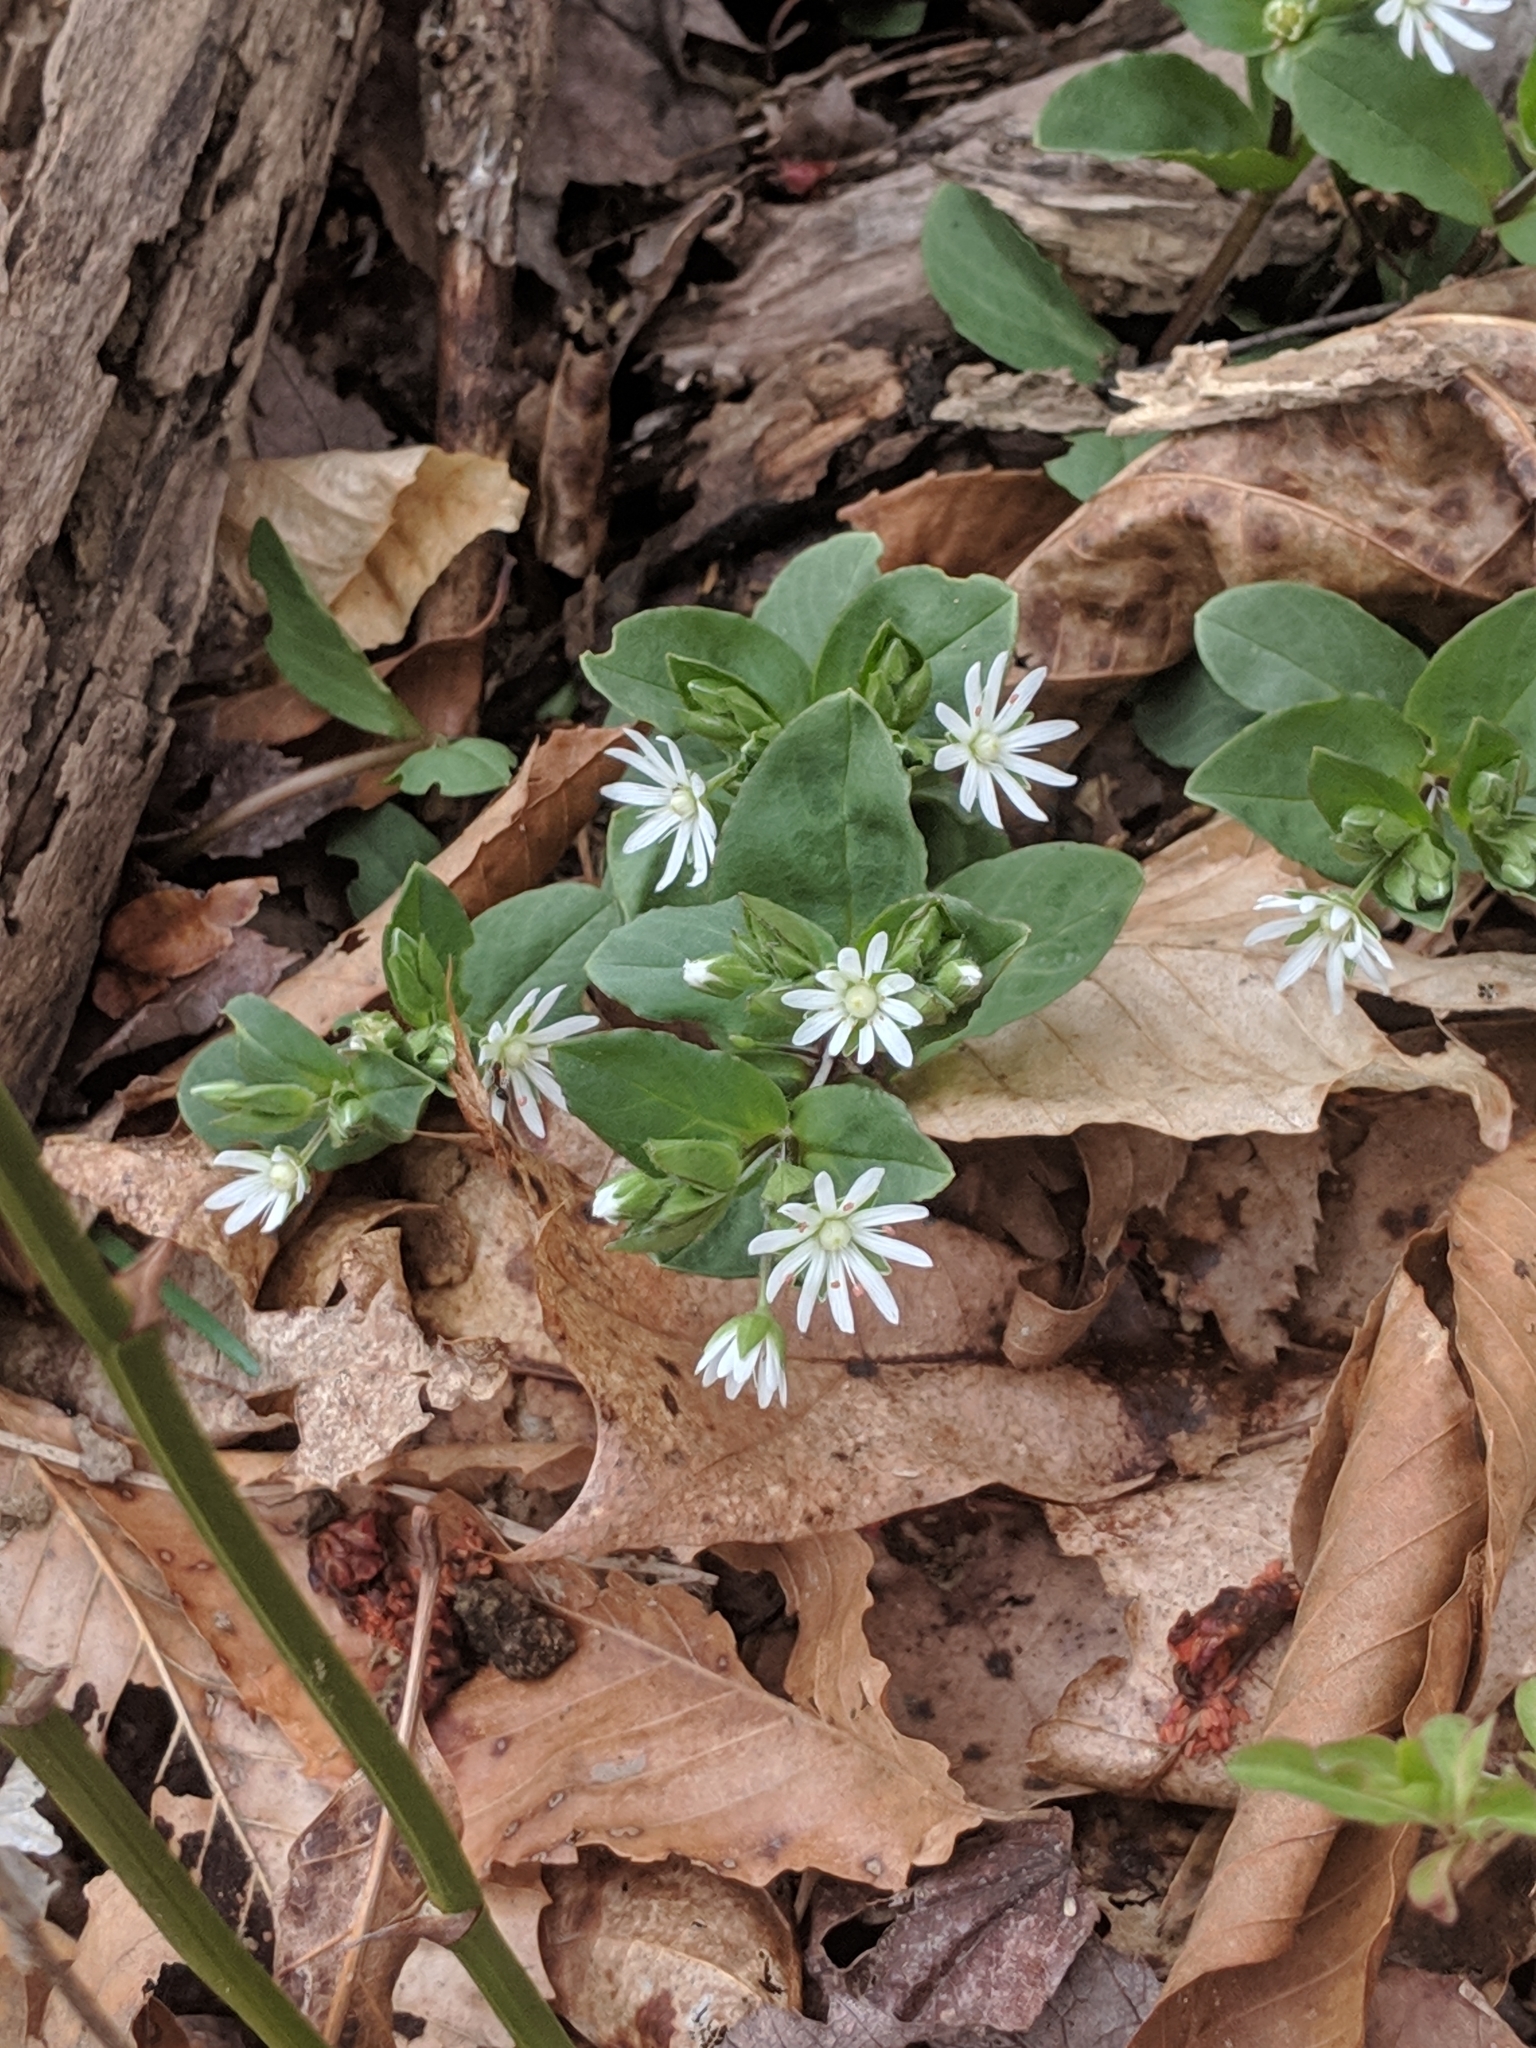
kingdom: Plantae
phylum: Tracheophyta
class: Magnoliopsida
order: Caryophyllales
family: Caryophyllaceae
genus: Stellaria
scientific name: Stellaria pubera
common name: Star chickweed
